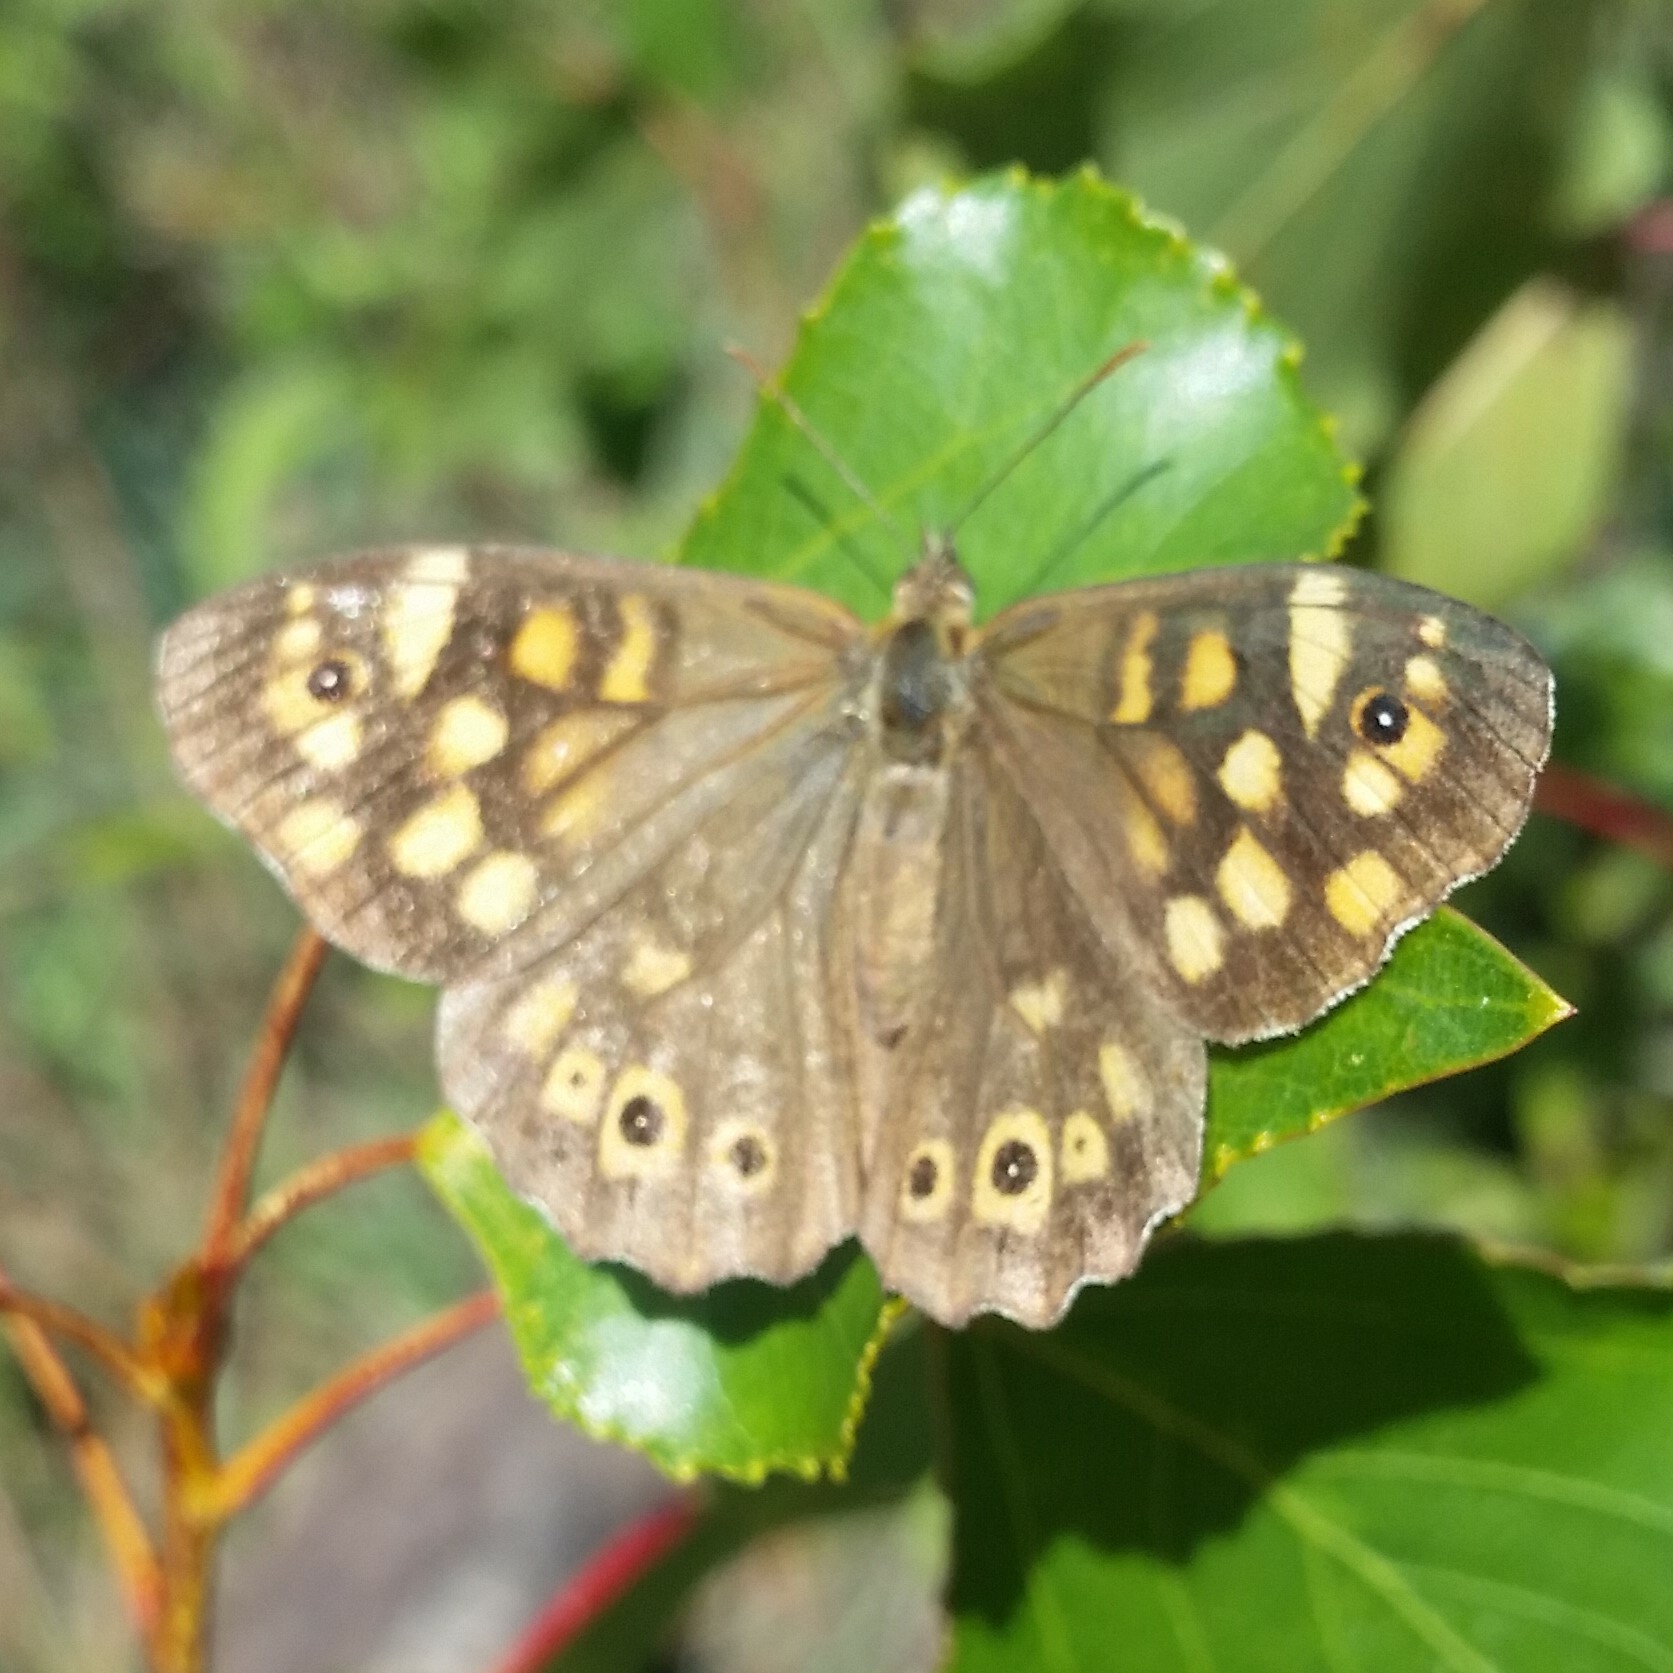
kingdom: Animalia
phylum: Arthropoda
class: Insecta
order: Lepidoptera
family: Nymphalidae
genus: Pararge
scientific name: Pararge aegeria
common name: Speckled wood
